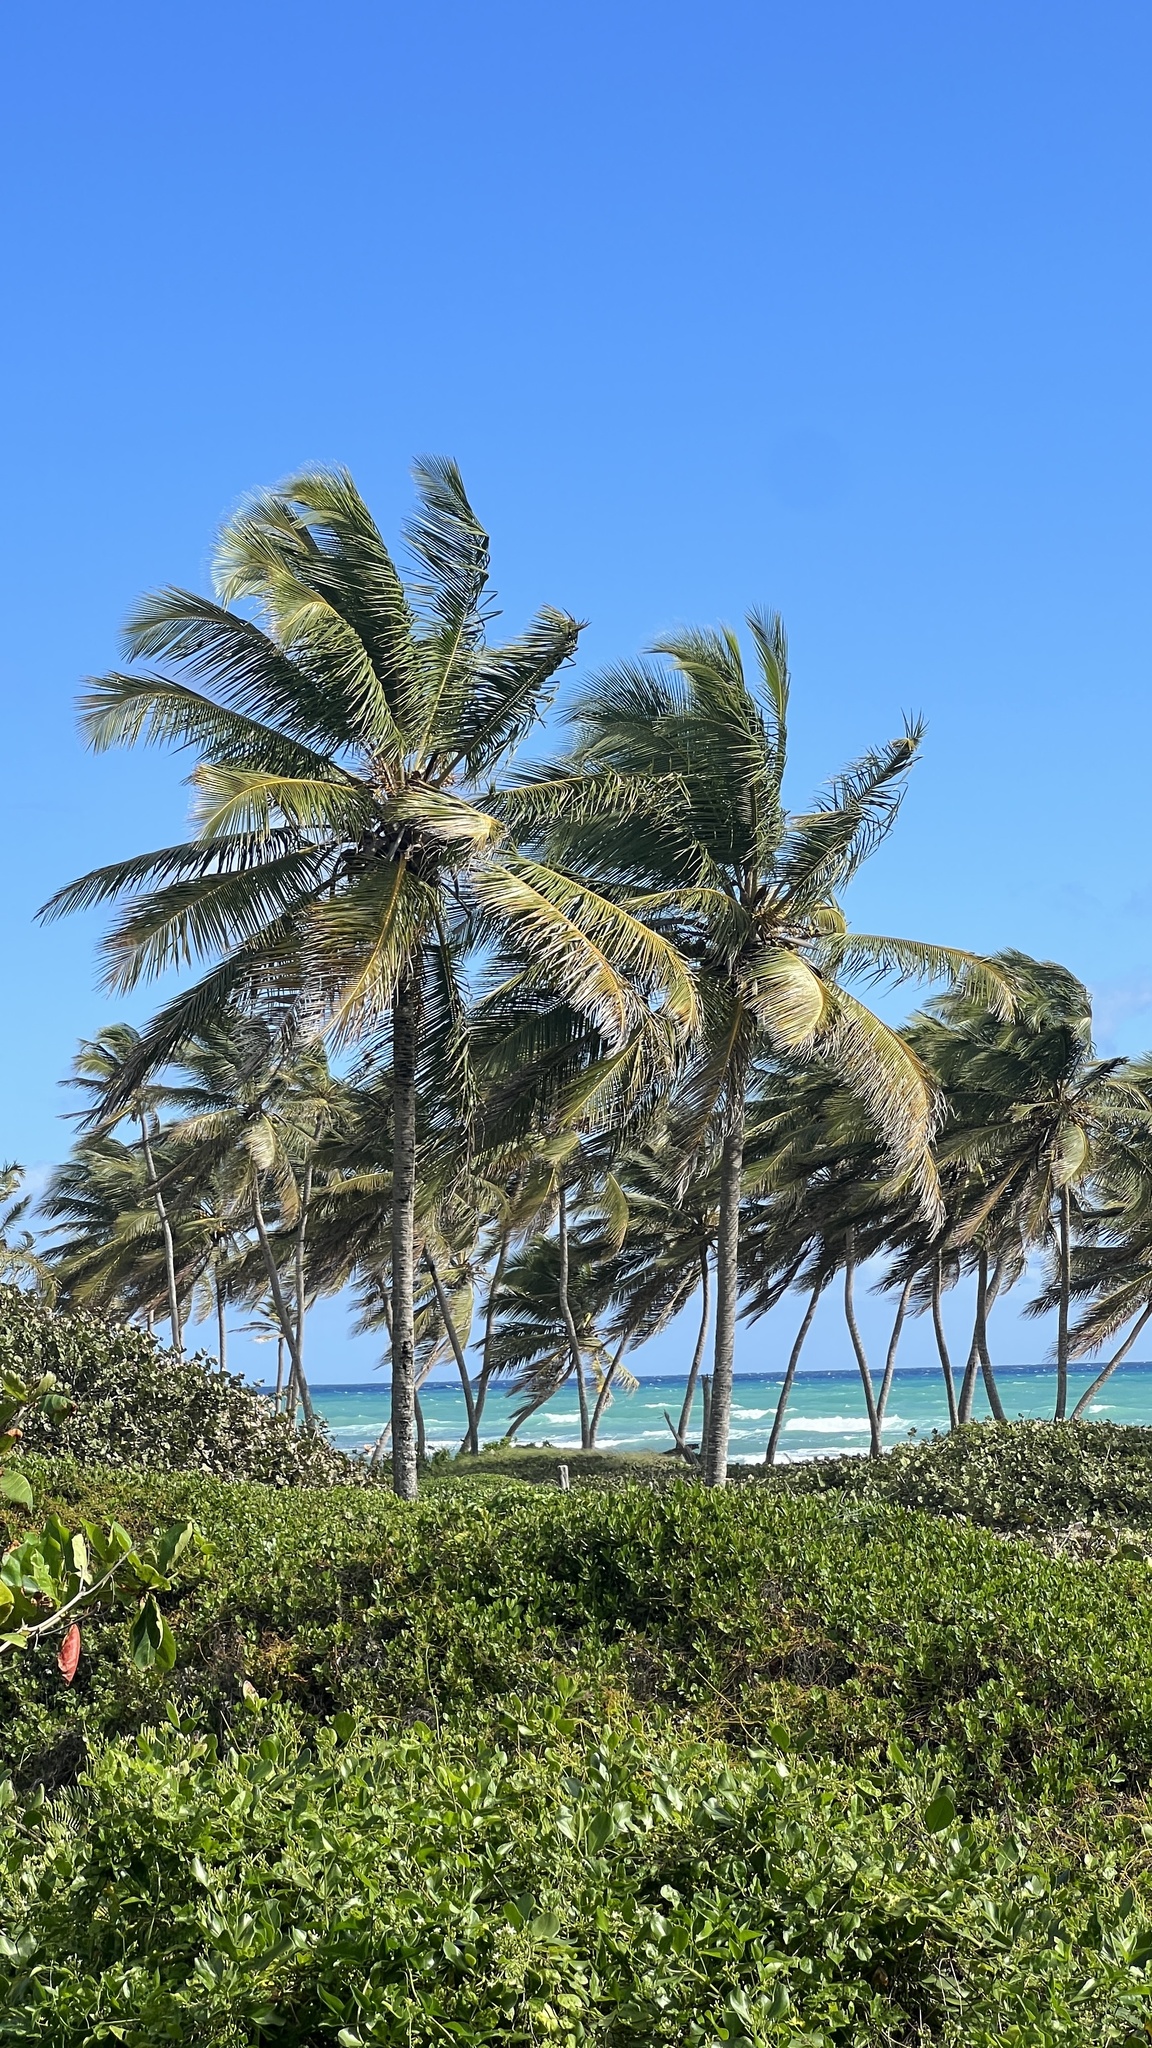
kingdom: Plantae
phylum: Tracheophyta
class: Liliopsida
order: Arecales
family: Arecaceae
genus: Cocos
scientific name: Cocos nucifera
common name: Coconut palm
